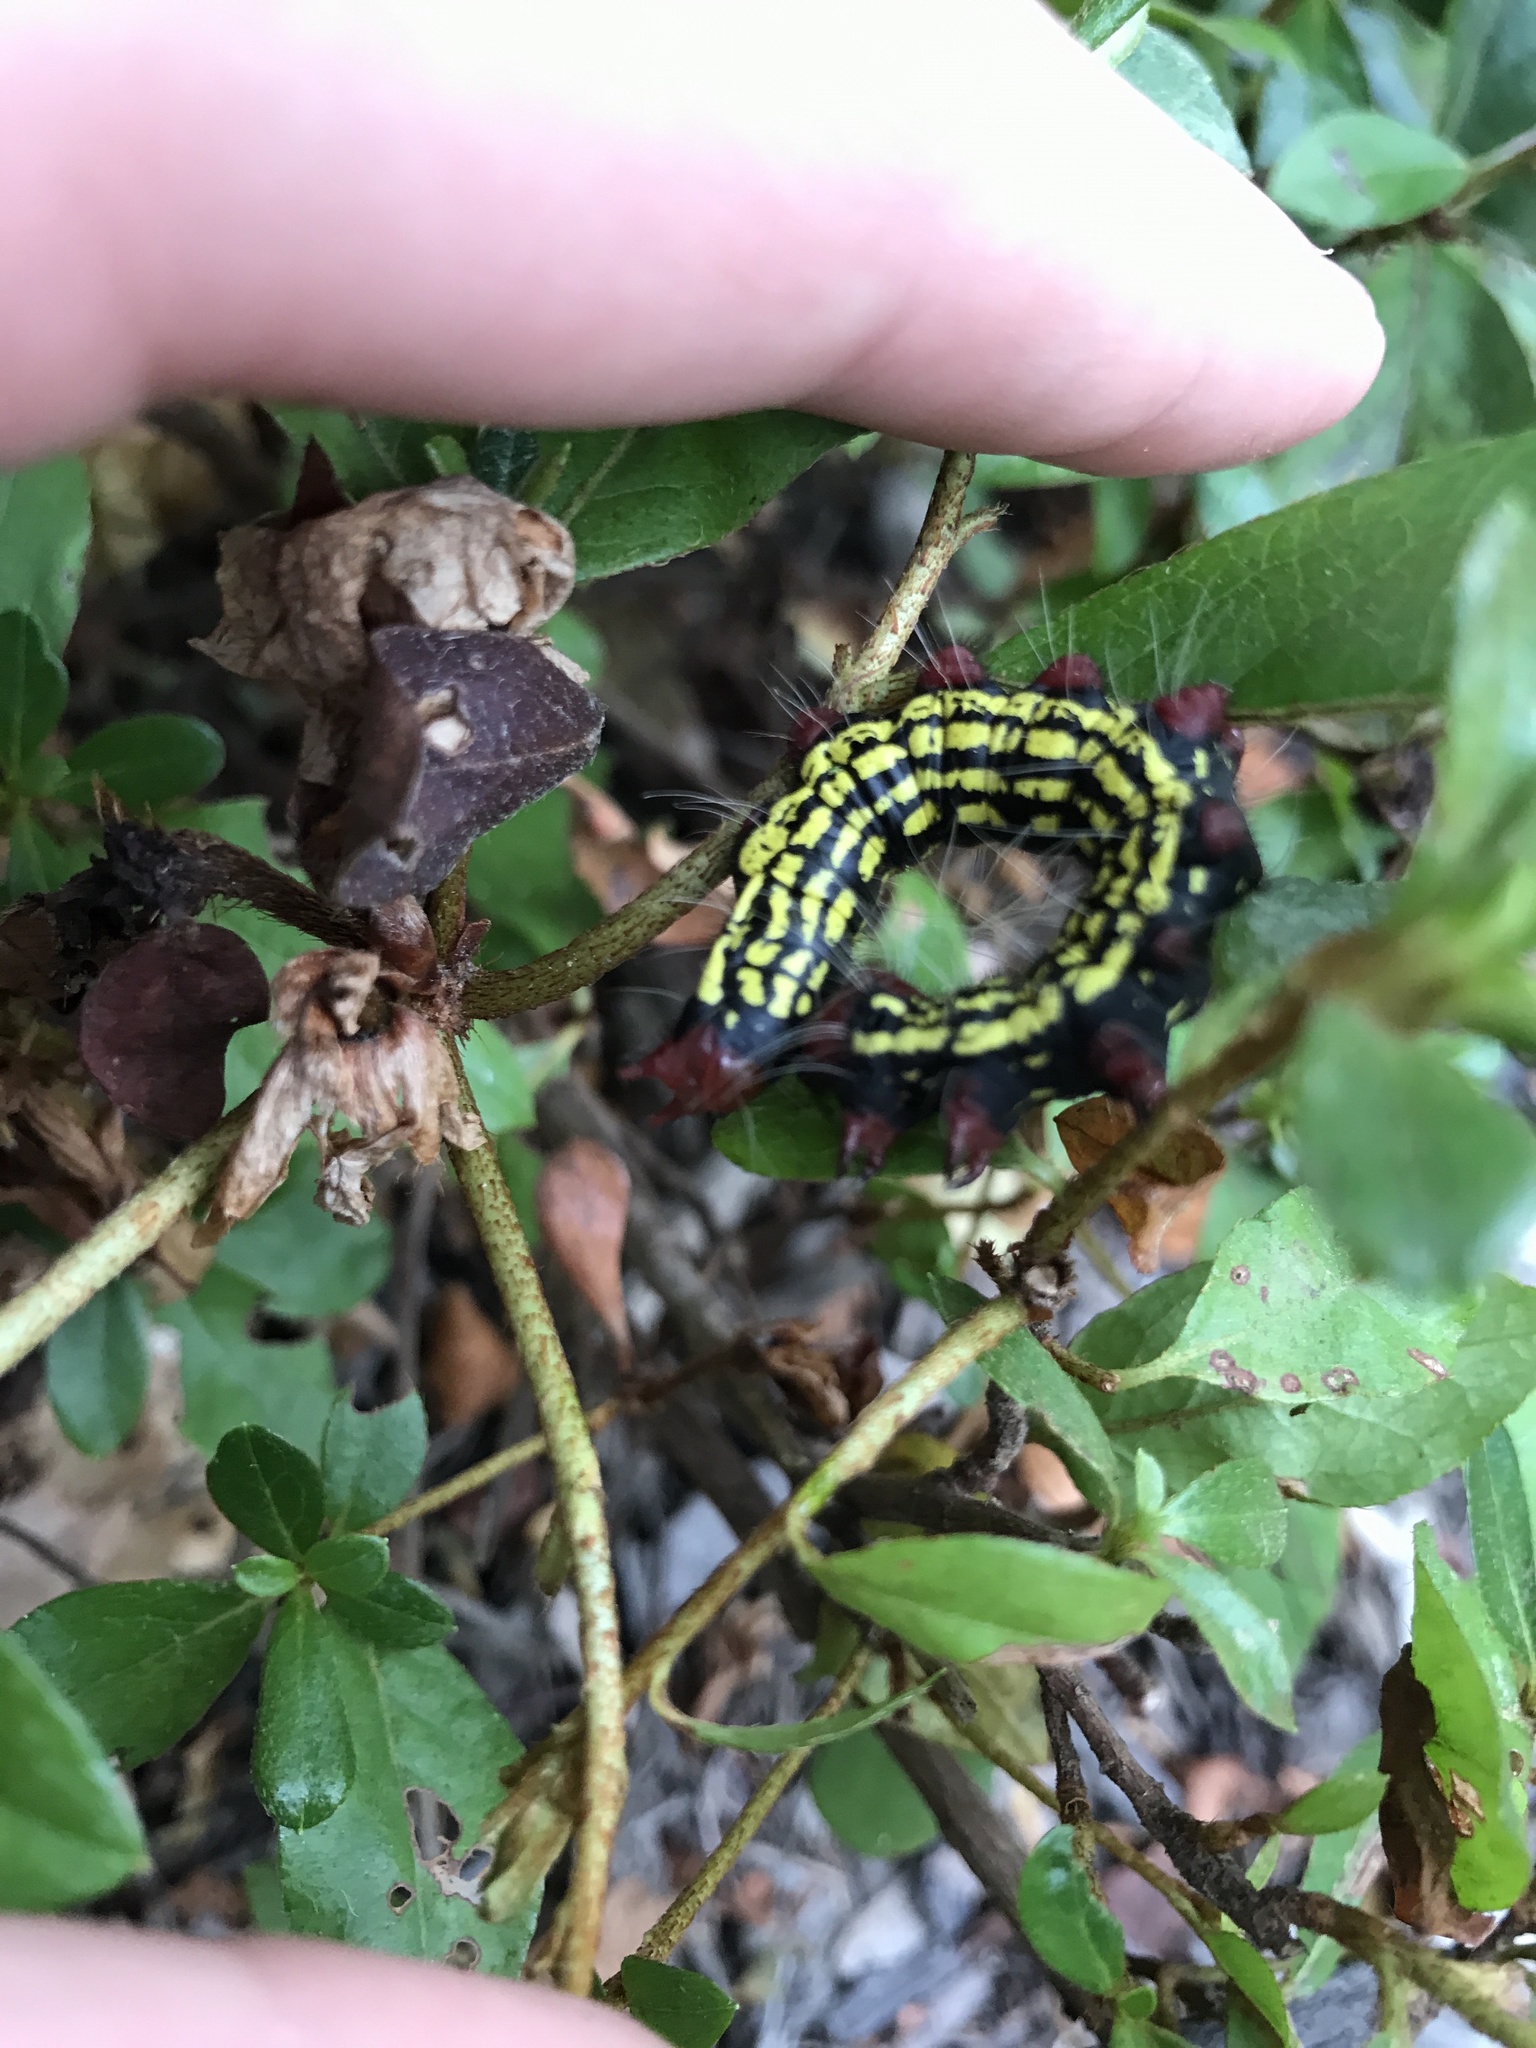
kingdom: Animalia
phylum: Arthropoda
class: Insecta
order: Lepidoptera
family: Notodontidae
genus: Datana
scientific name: Datana major
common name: Azalea caterpillar
